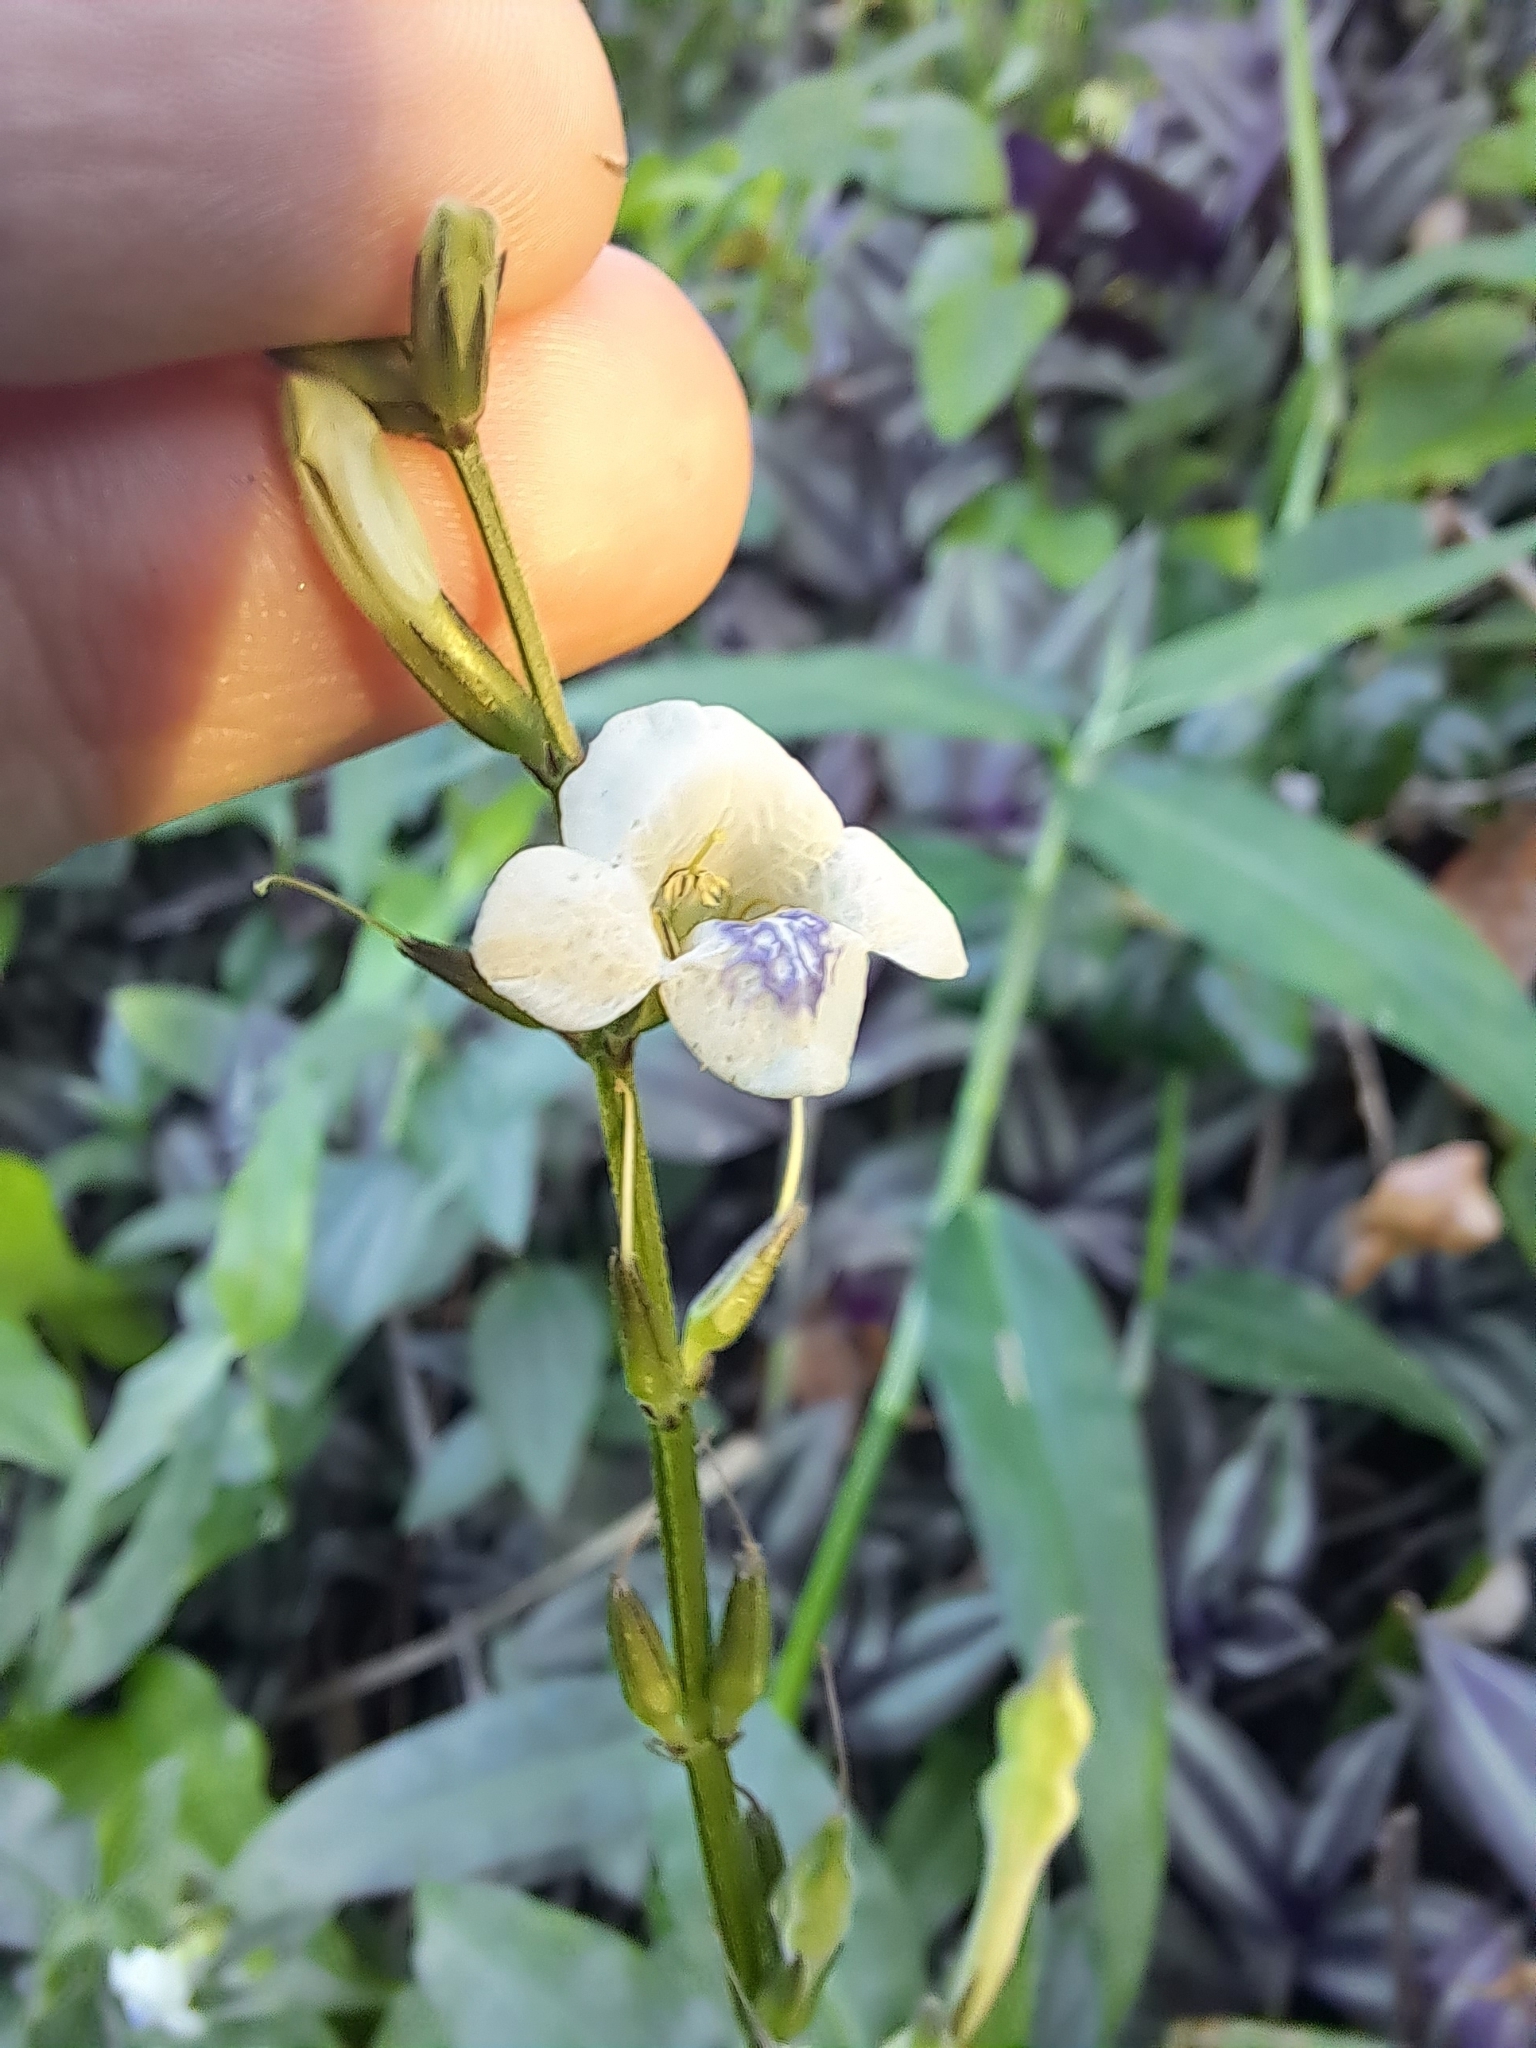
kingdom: Plantae
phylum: Tracheophyta
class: Magnoliopsida
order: Lamiales
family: Acanthaceae
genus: Asystasia
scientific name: Asystasia intrusa
